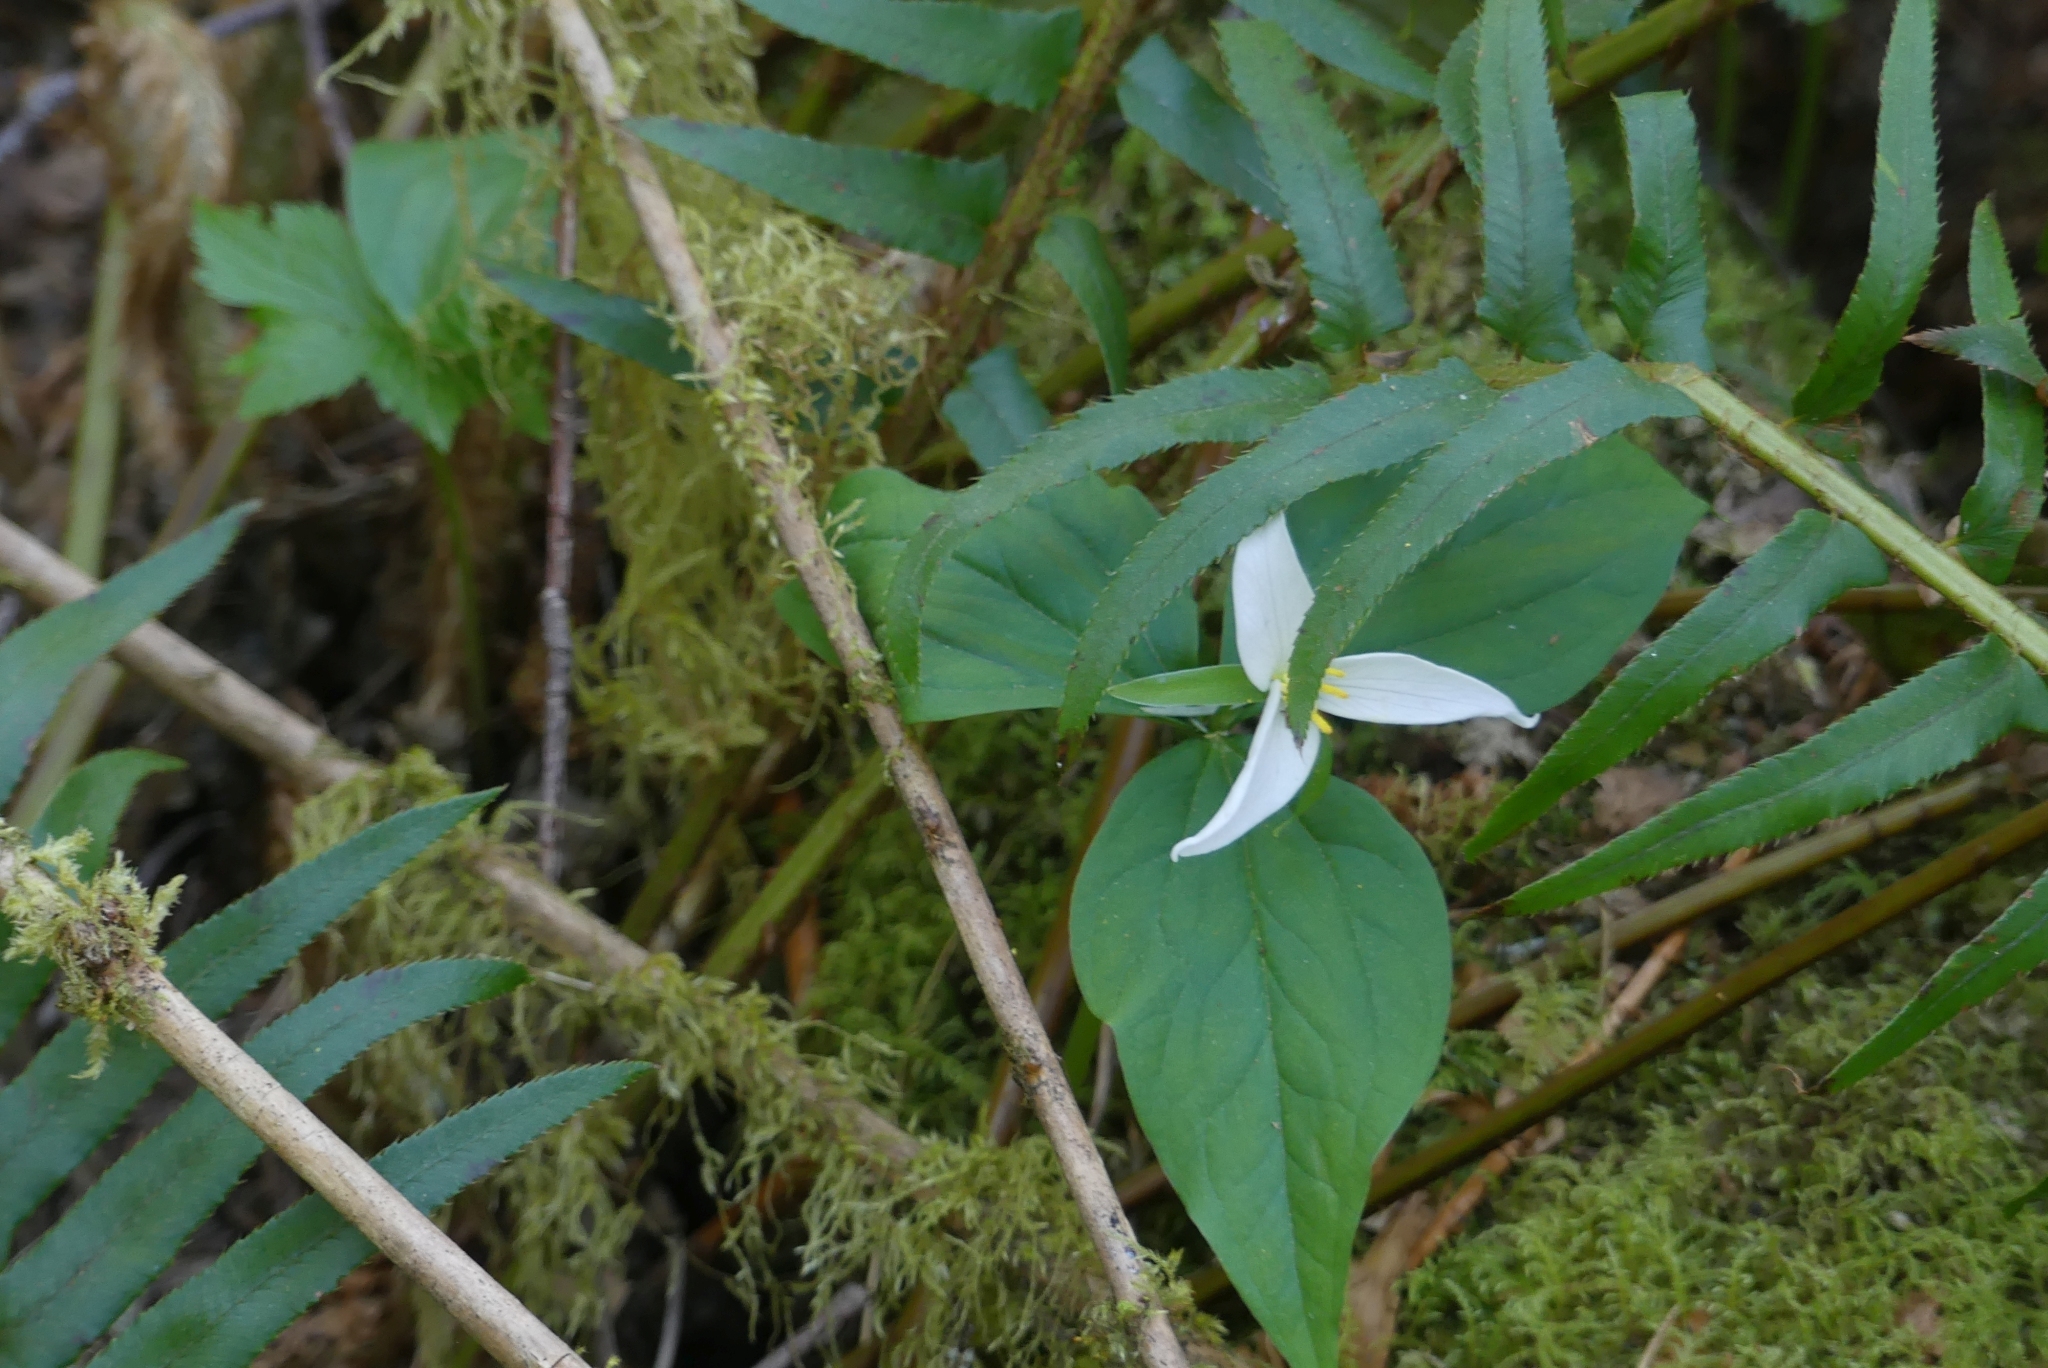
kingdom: Plantae
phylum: Tracheophyta
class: Liliopsida
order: Liliales
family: Melanthiaceae
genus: Trillium
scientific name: Trillium ovatum
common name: Pacific trillium
